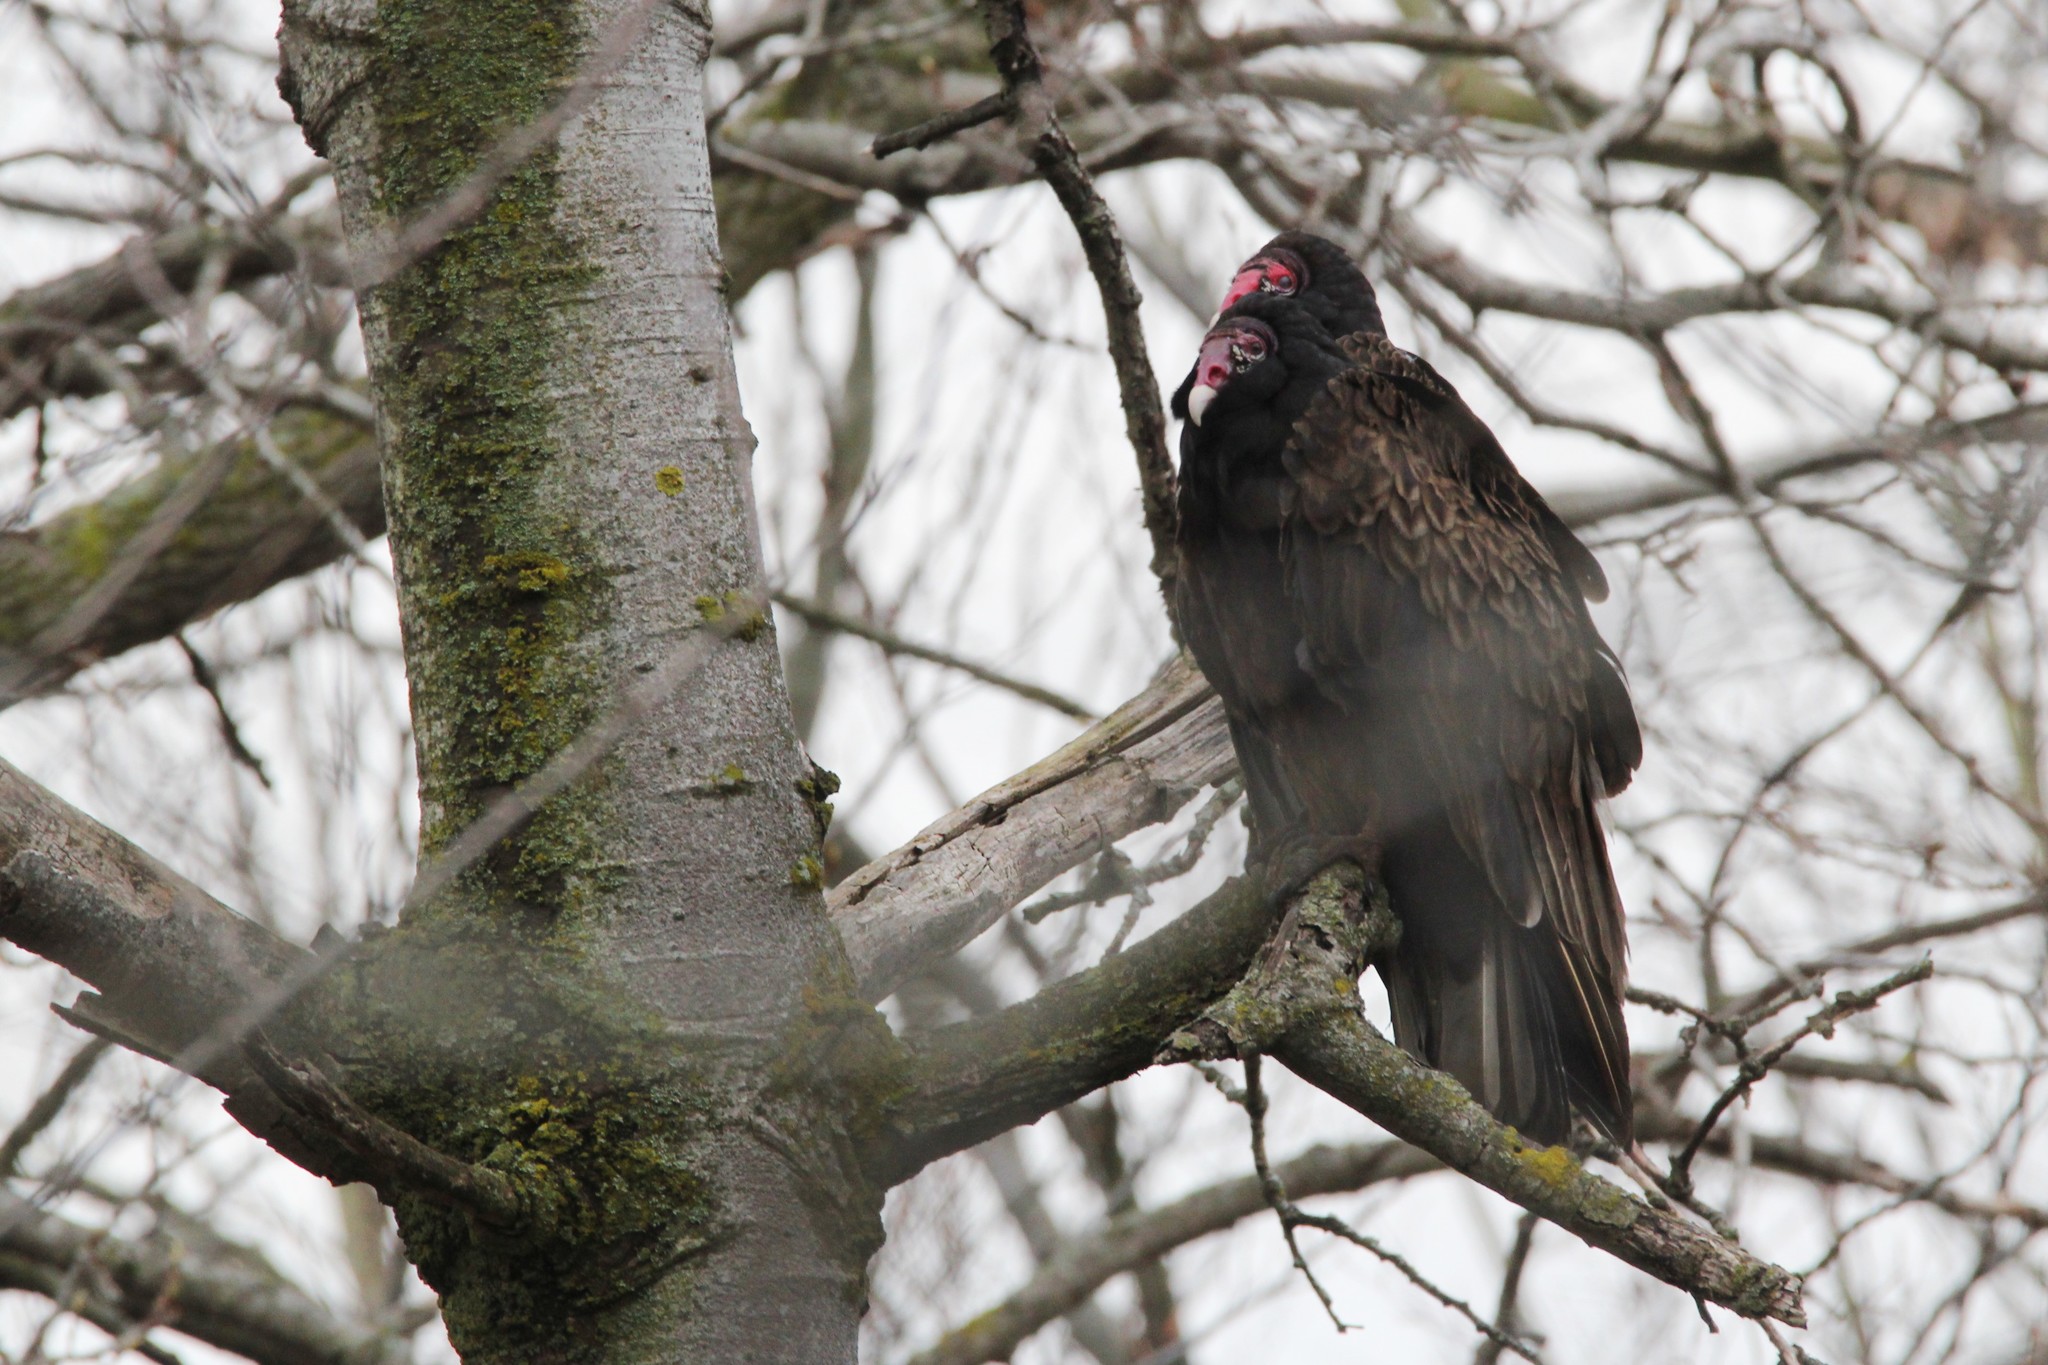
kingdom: Animalia
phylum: Chordata
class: Aves
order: Accipitriformes
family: Cathartidae
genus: Cathartes
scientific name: Cathartes aura
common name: Turkey vulture
